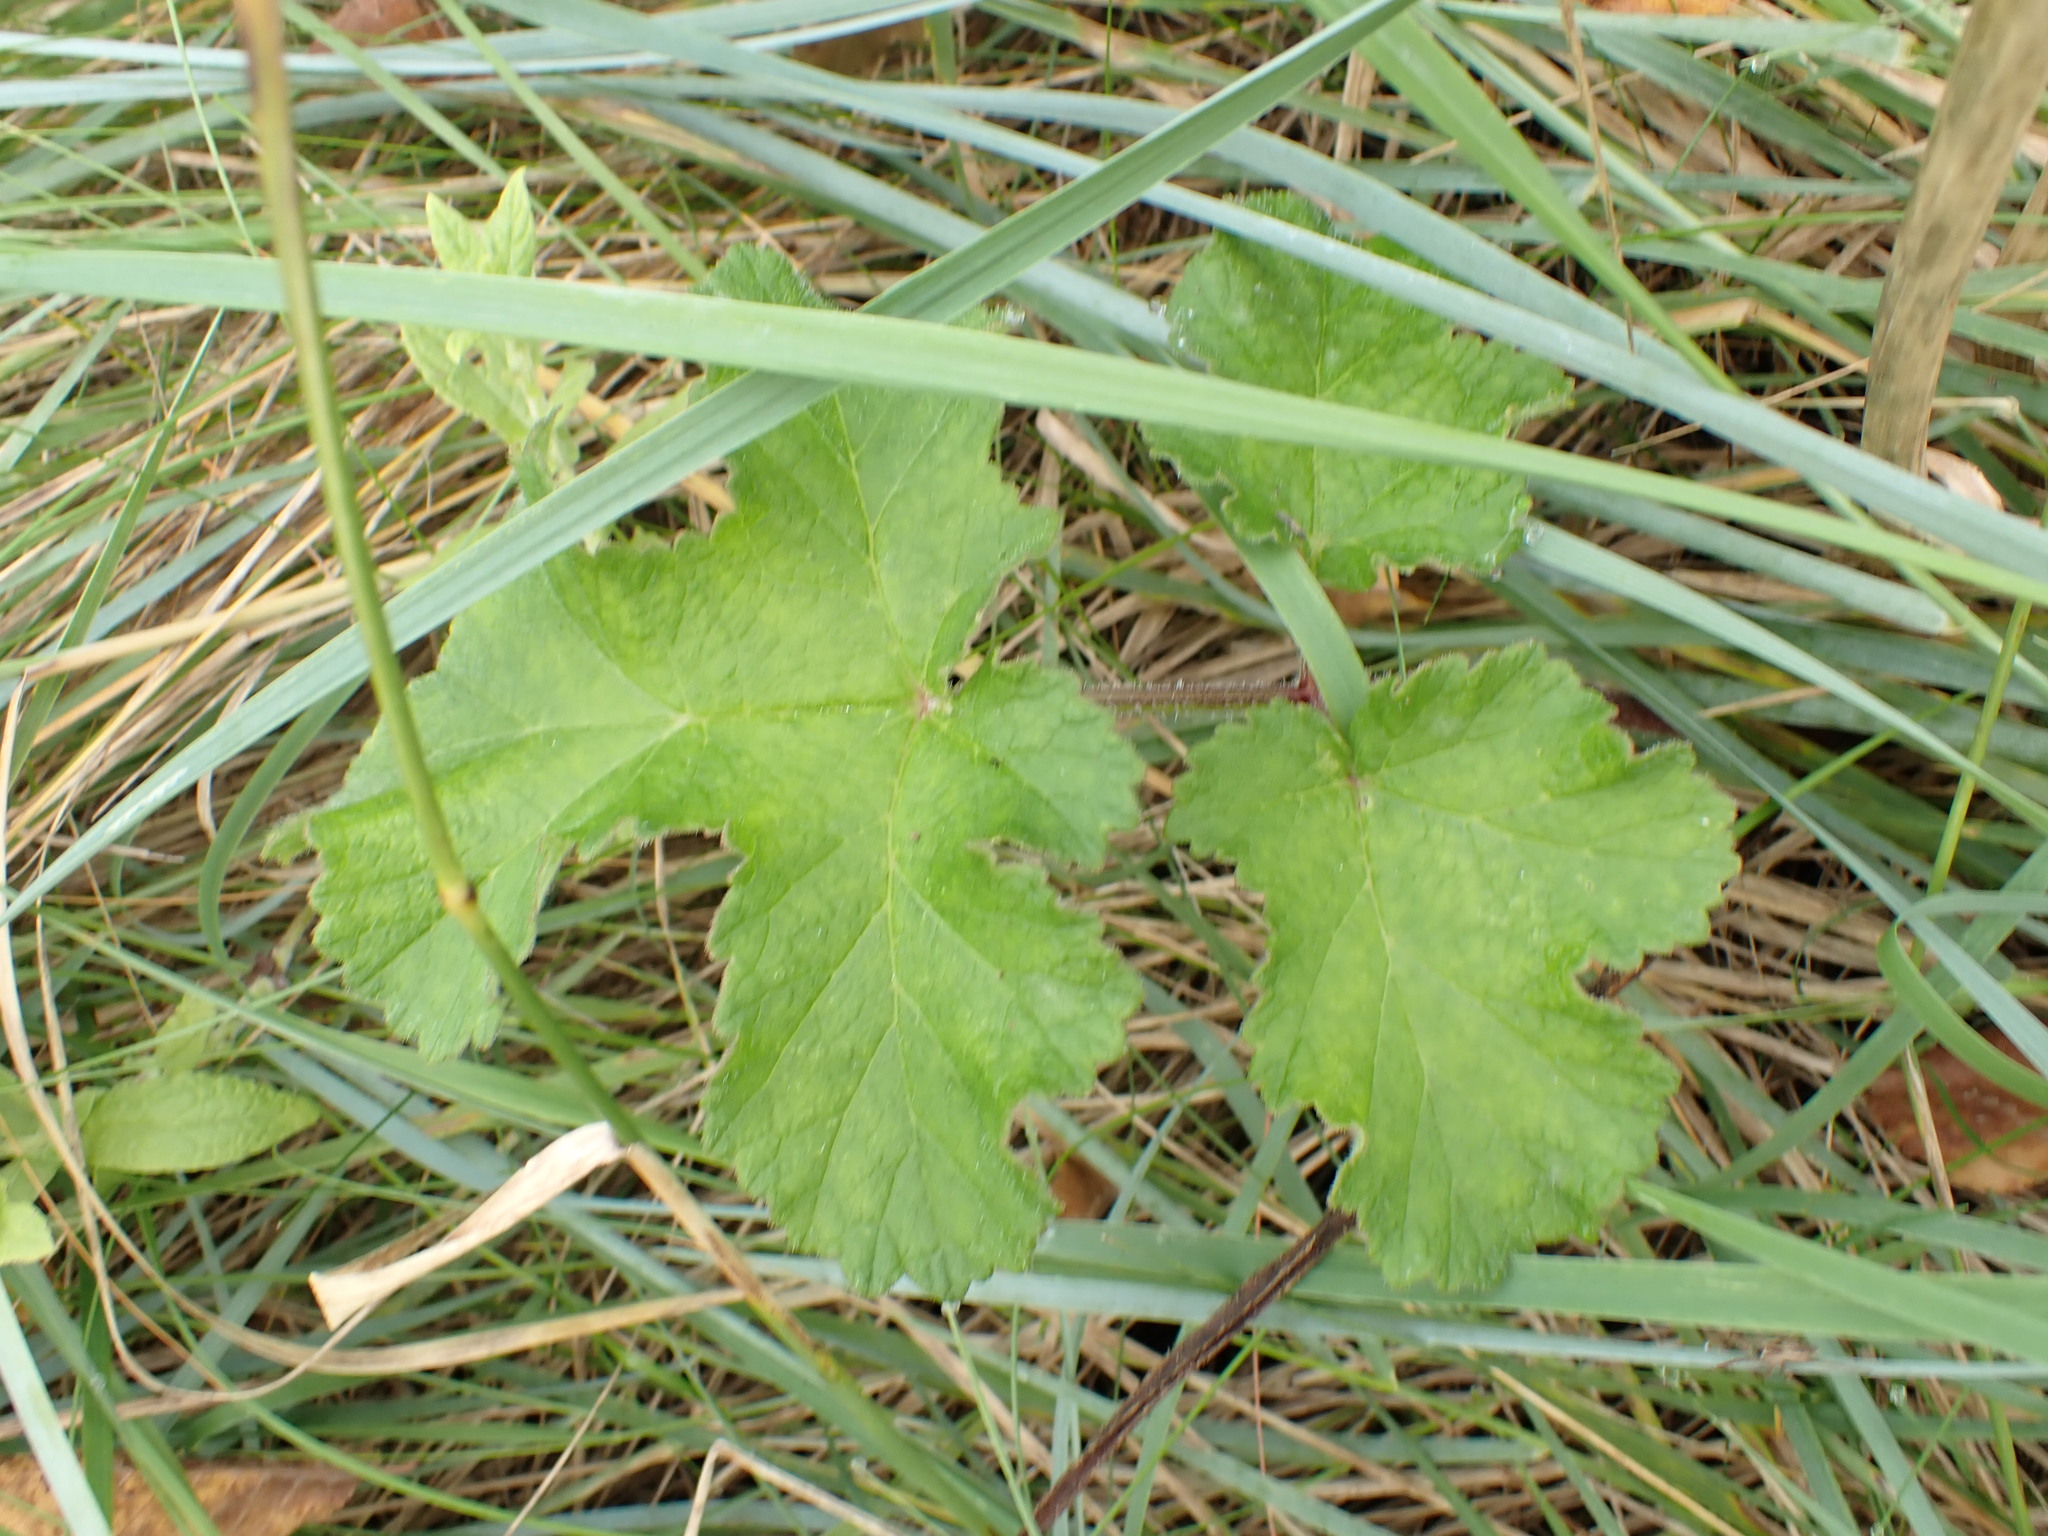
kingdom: Plantae
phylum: Tracheophyta
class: Magnoliopsida
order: Apiales
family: Apiaceae
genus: Heracleum
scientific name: Heracleum sphondylium
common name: Hogweed
